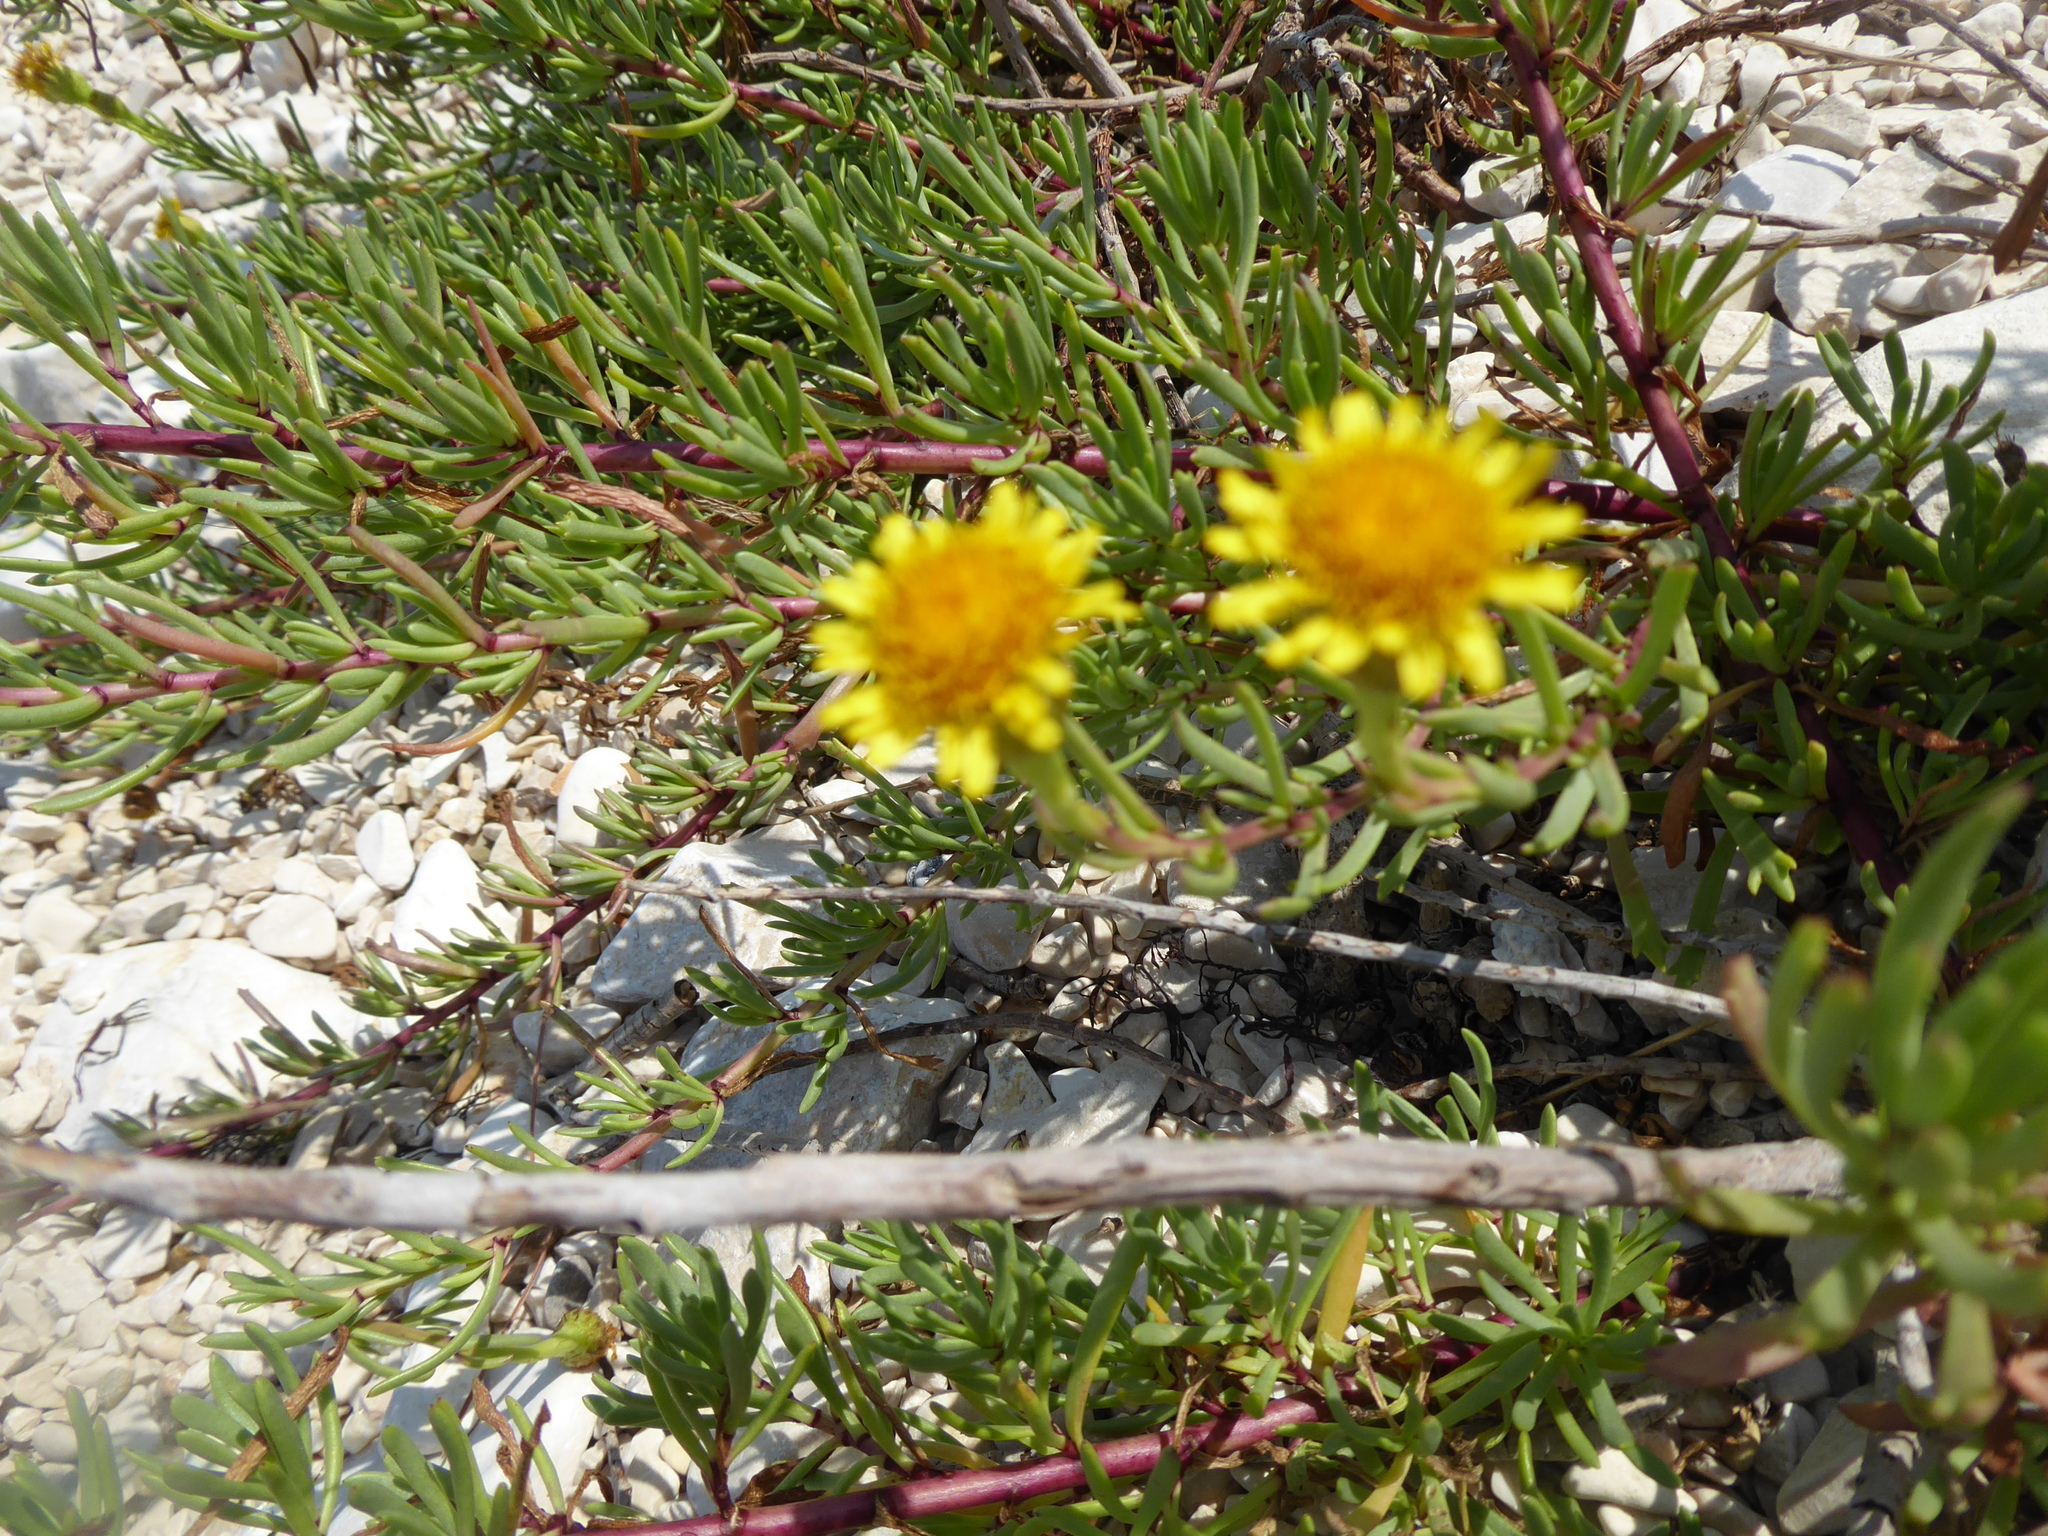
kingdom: Plantae
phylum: Tracheophyta
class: Magnoliopsida
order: Asterales
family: Asteraceae
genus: Limbarda
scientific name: Limbarda crithmoides
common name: Golden samphire
